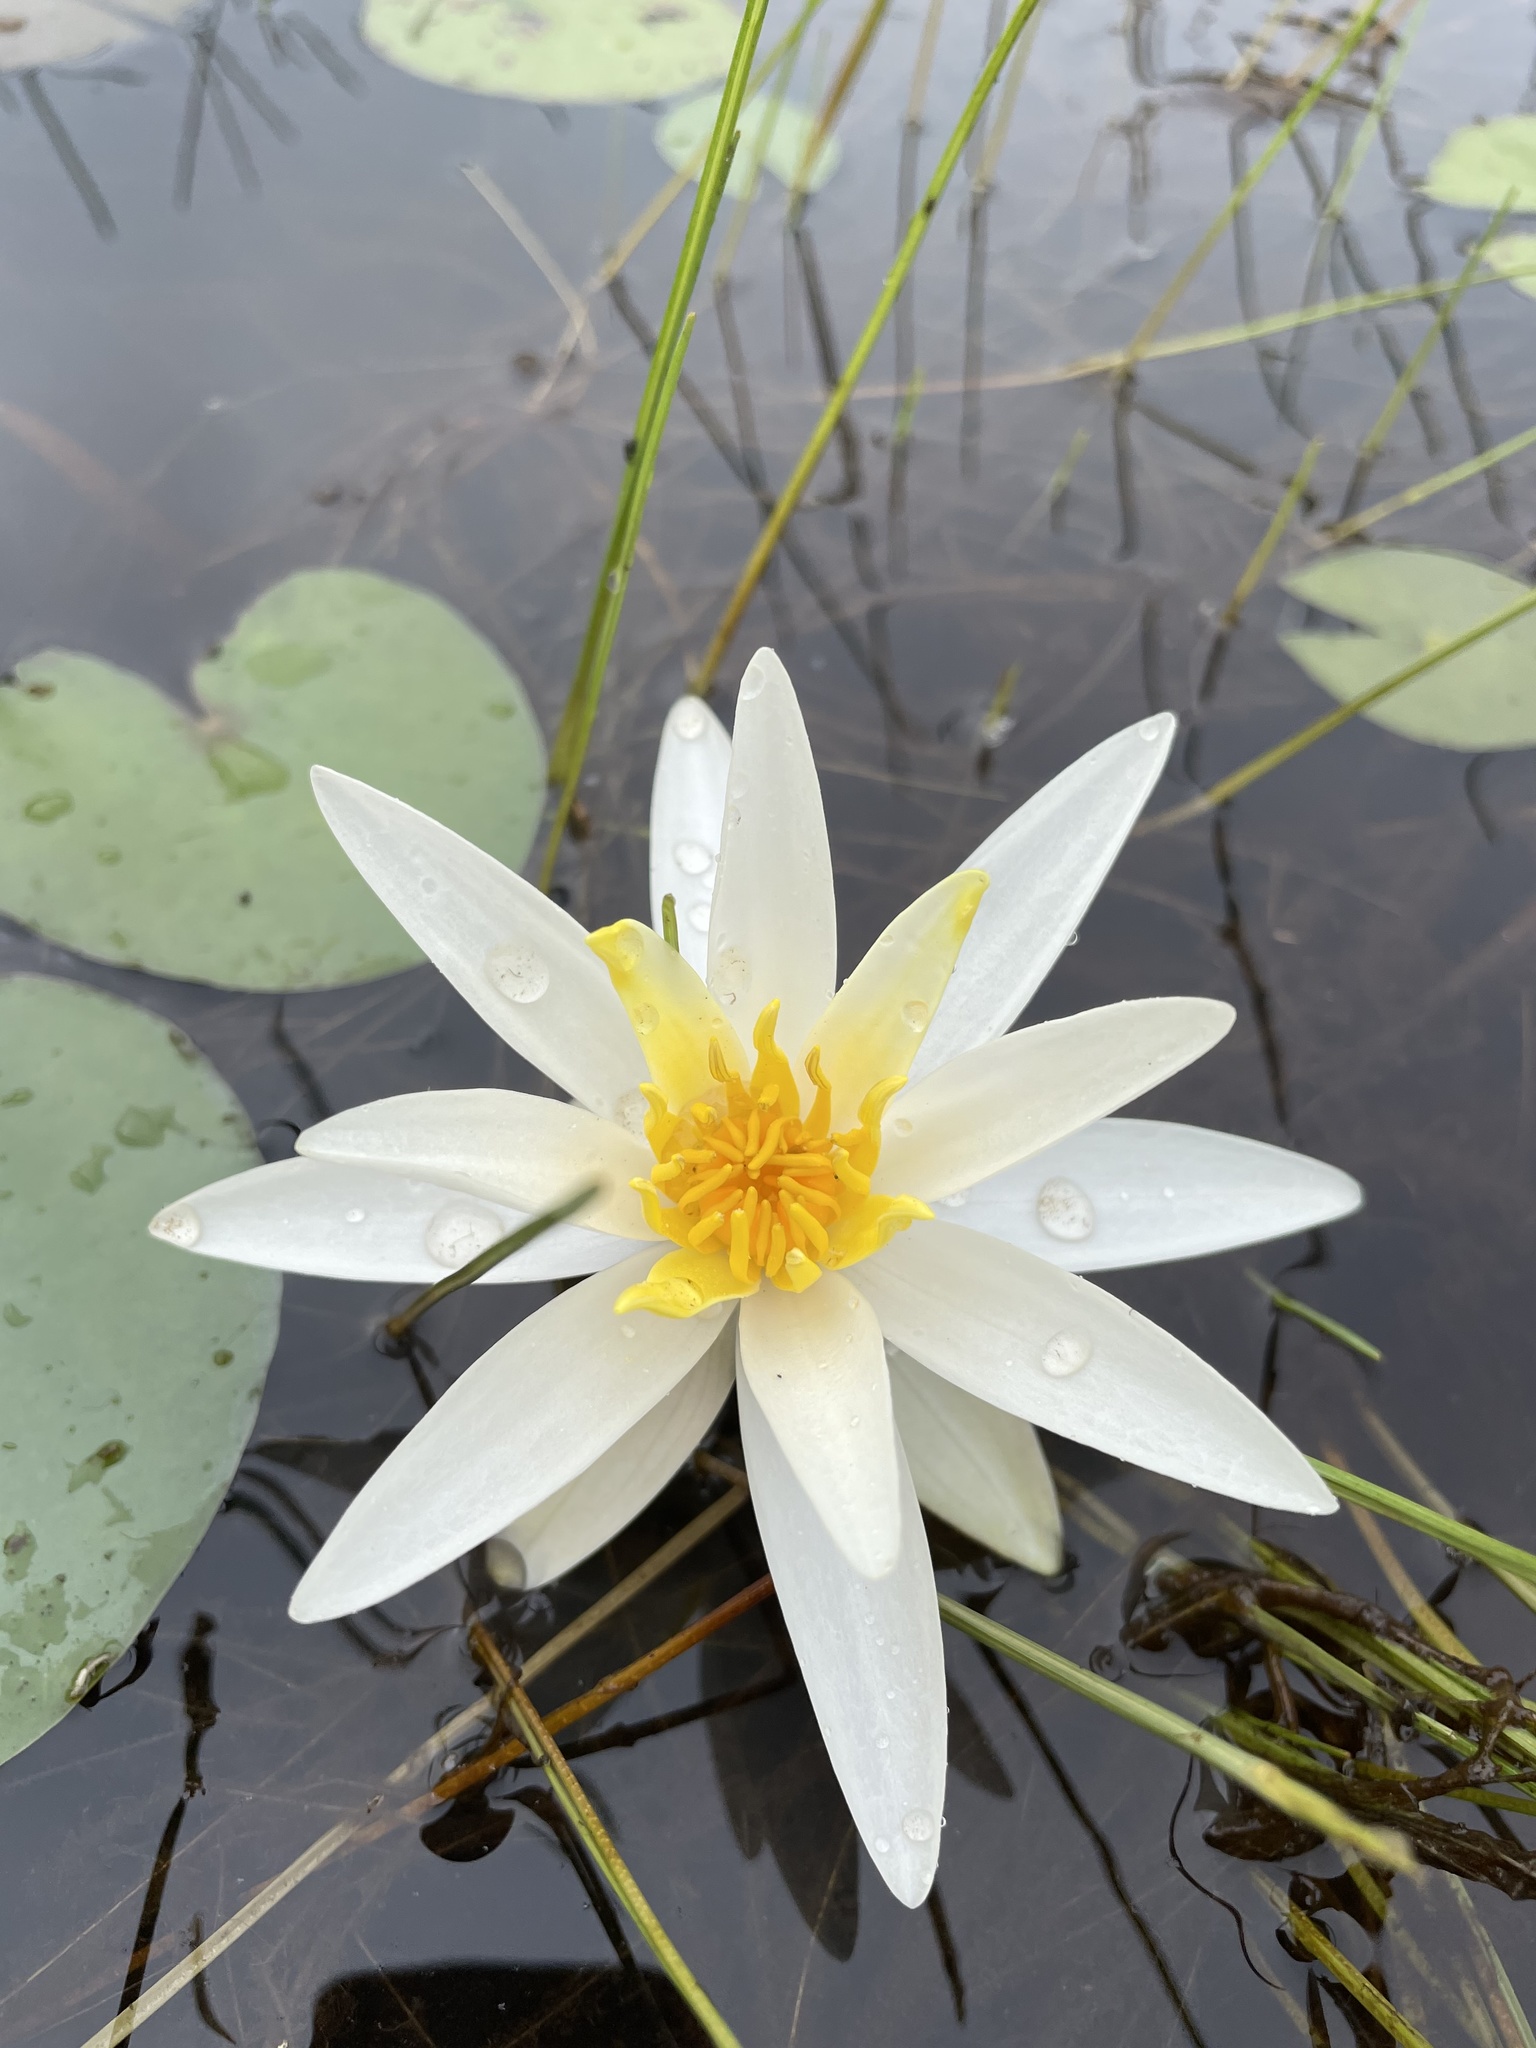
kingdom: Plantae
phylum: Tracheophyta
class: Magnoliopsida
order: Nymphaeales
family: Nymphaeaceae
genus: Nymphaea
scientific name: Nymphaea odorata
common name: Fragrant water-lily
